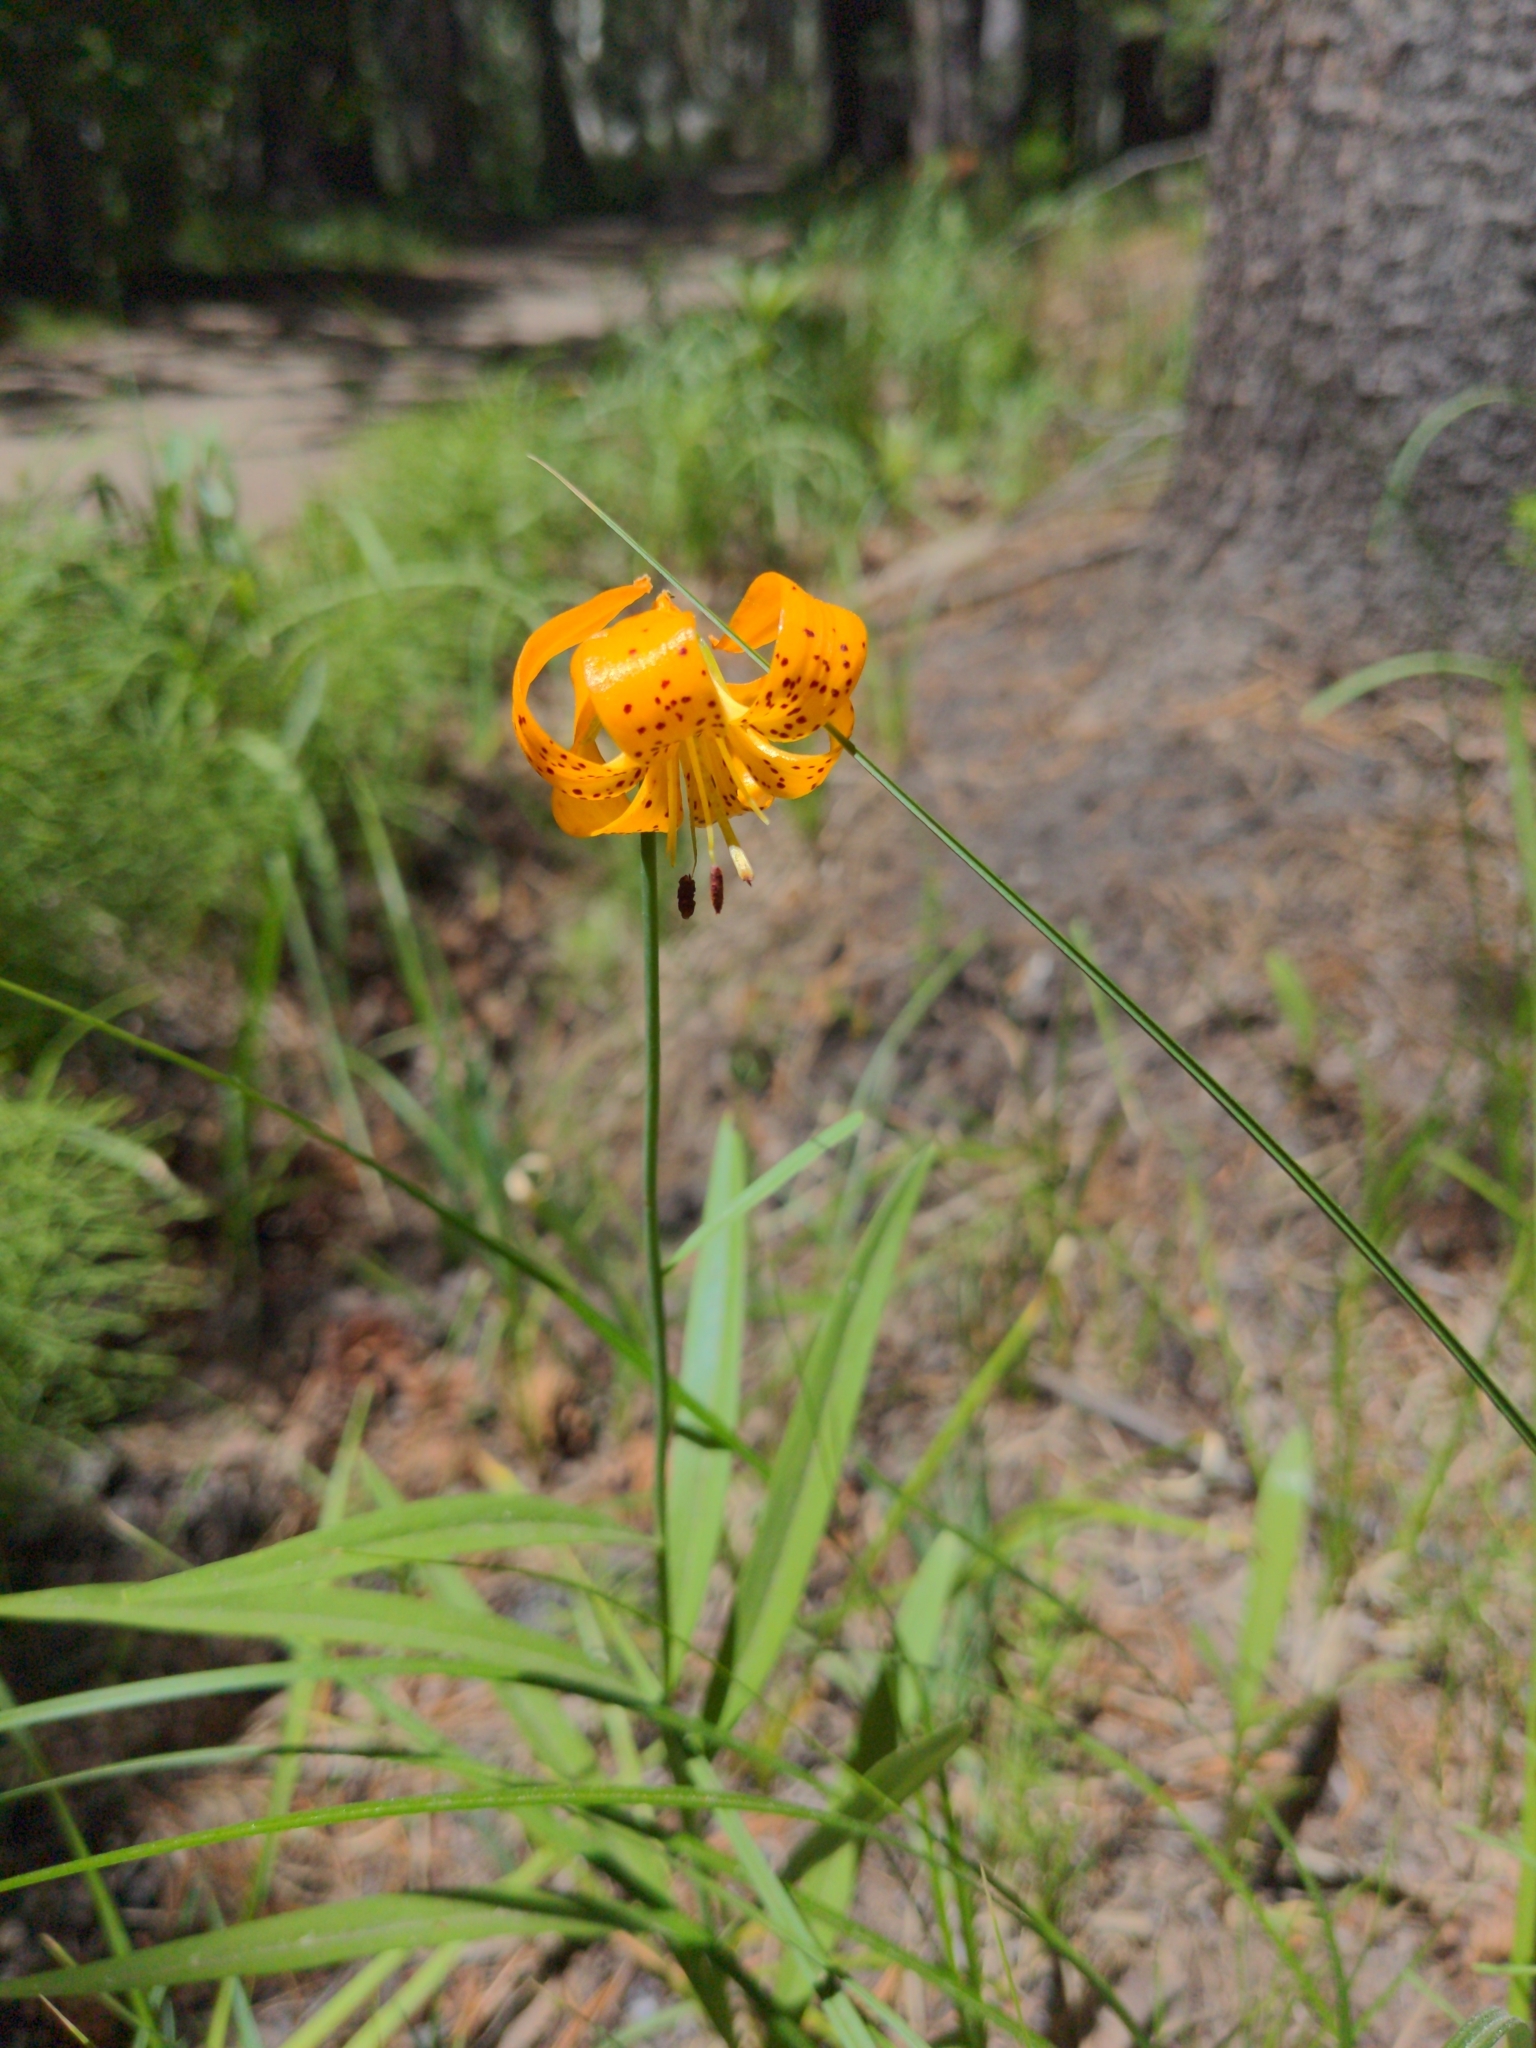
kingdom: Plantae
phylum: Tracheophyta
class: Liliopsida
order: Liliales
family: Liliaceae
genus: Lilium
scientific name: Lilium kelleyanum
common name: Kelley's lily
